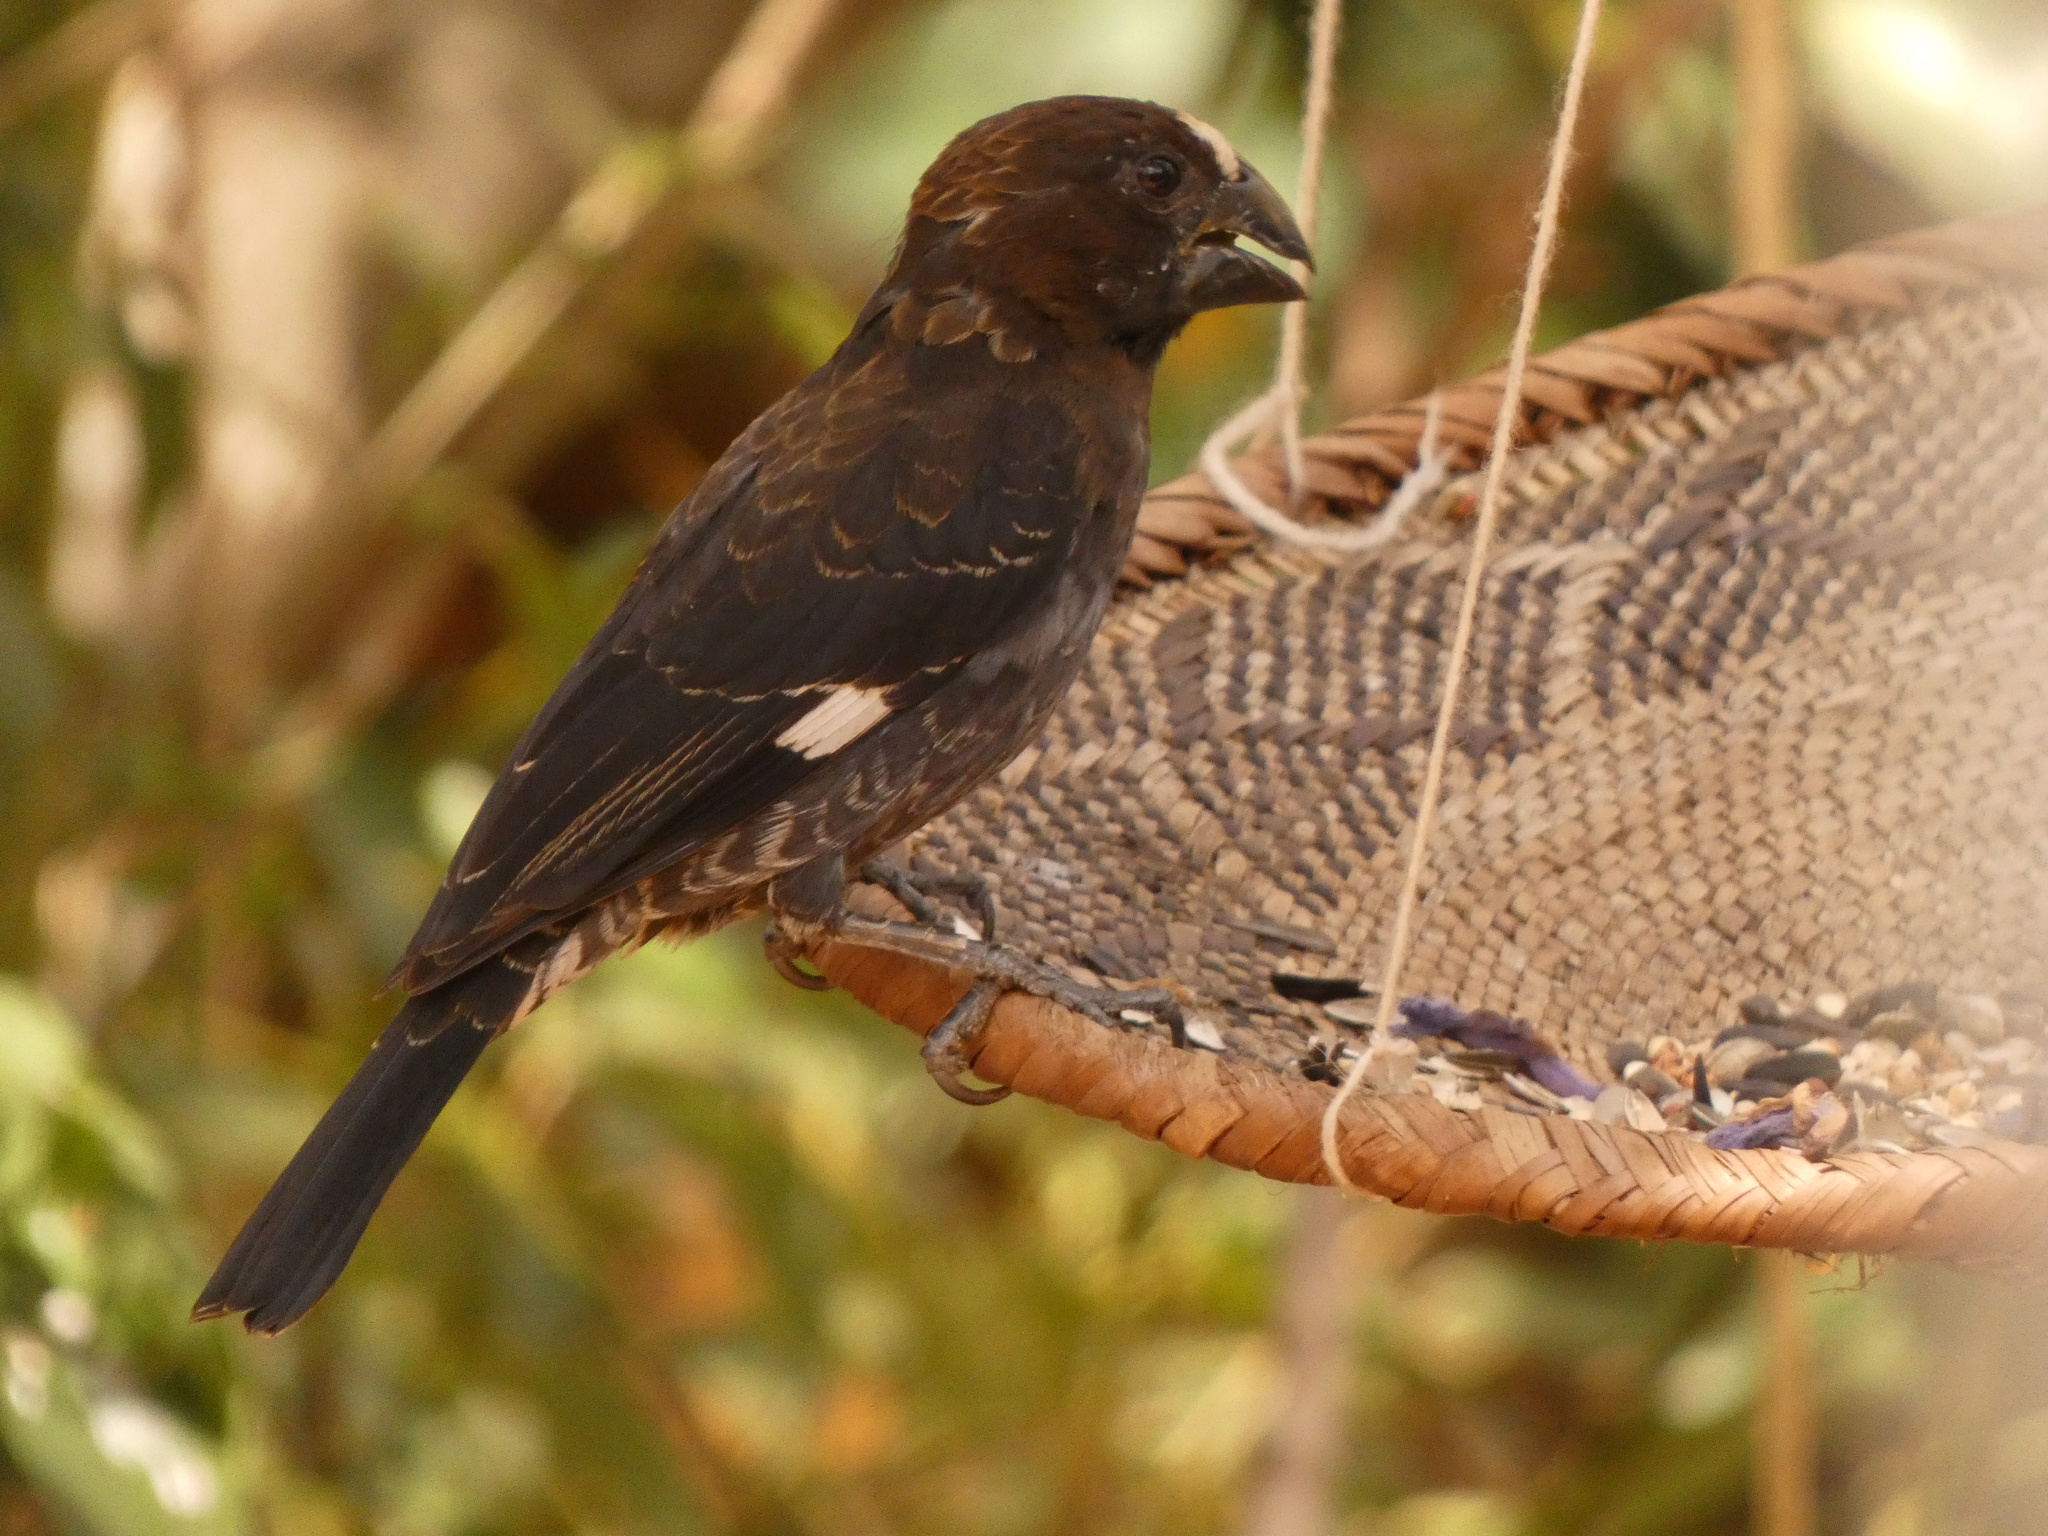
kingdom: Animalia
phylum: Chordata
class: Aves
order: Passeriformes
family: Ploceidae
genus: Amblyospiza
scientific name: Amblyospiza albifrons
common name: Thick-billed weaver
